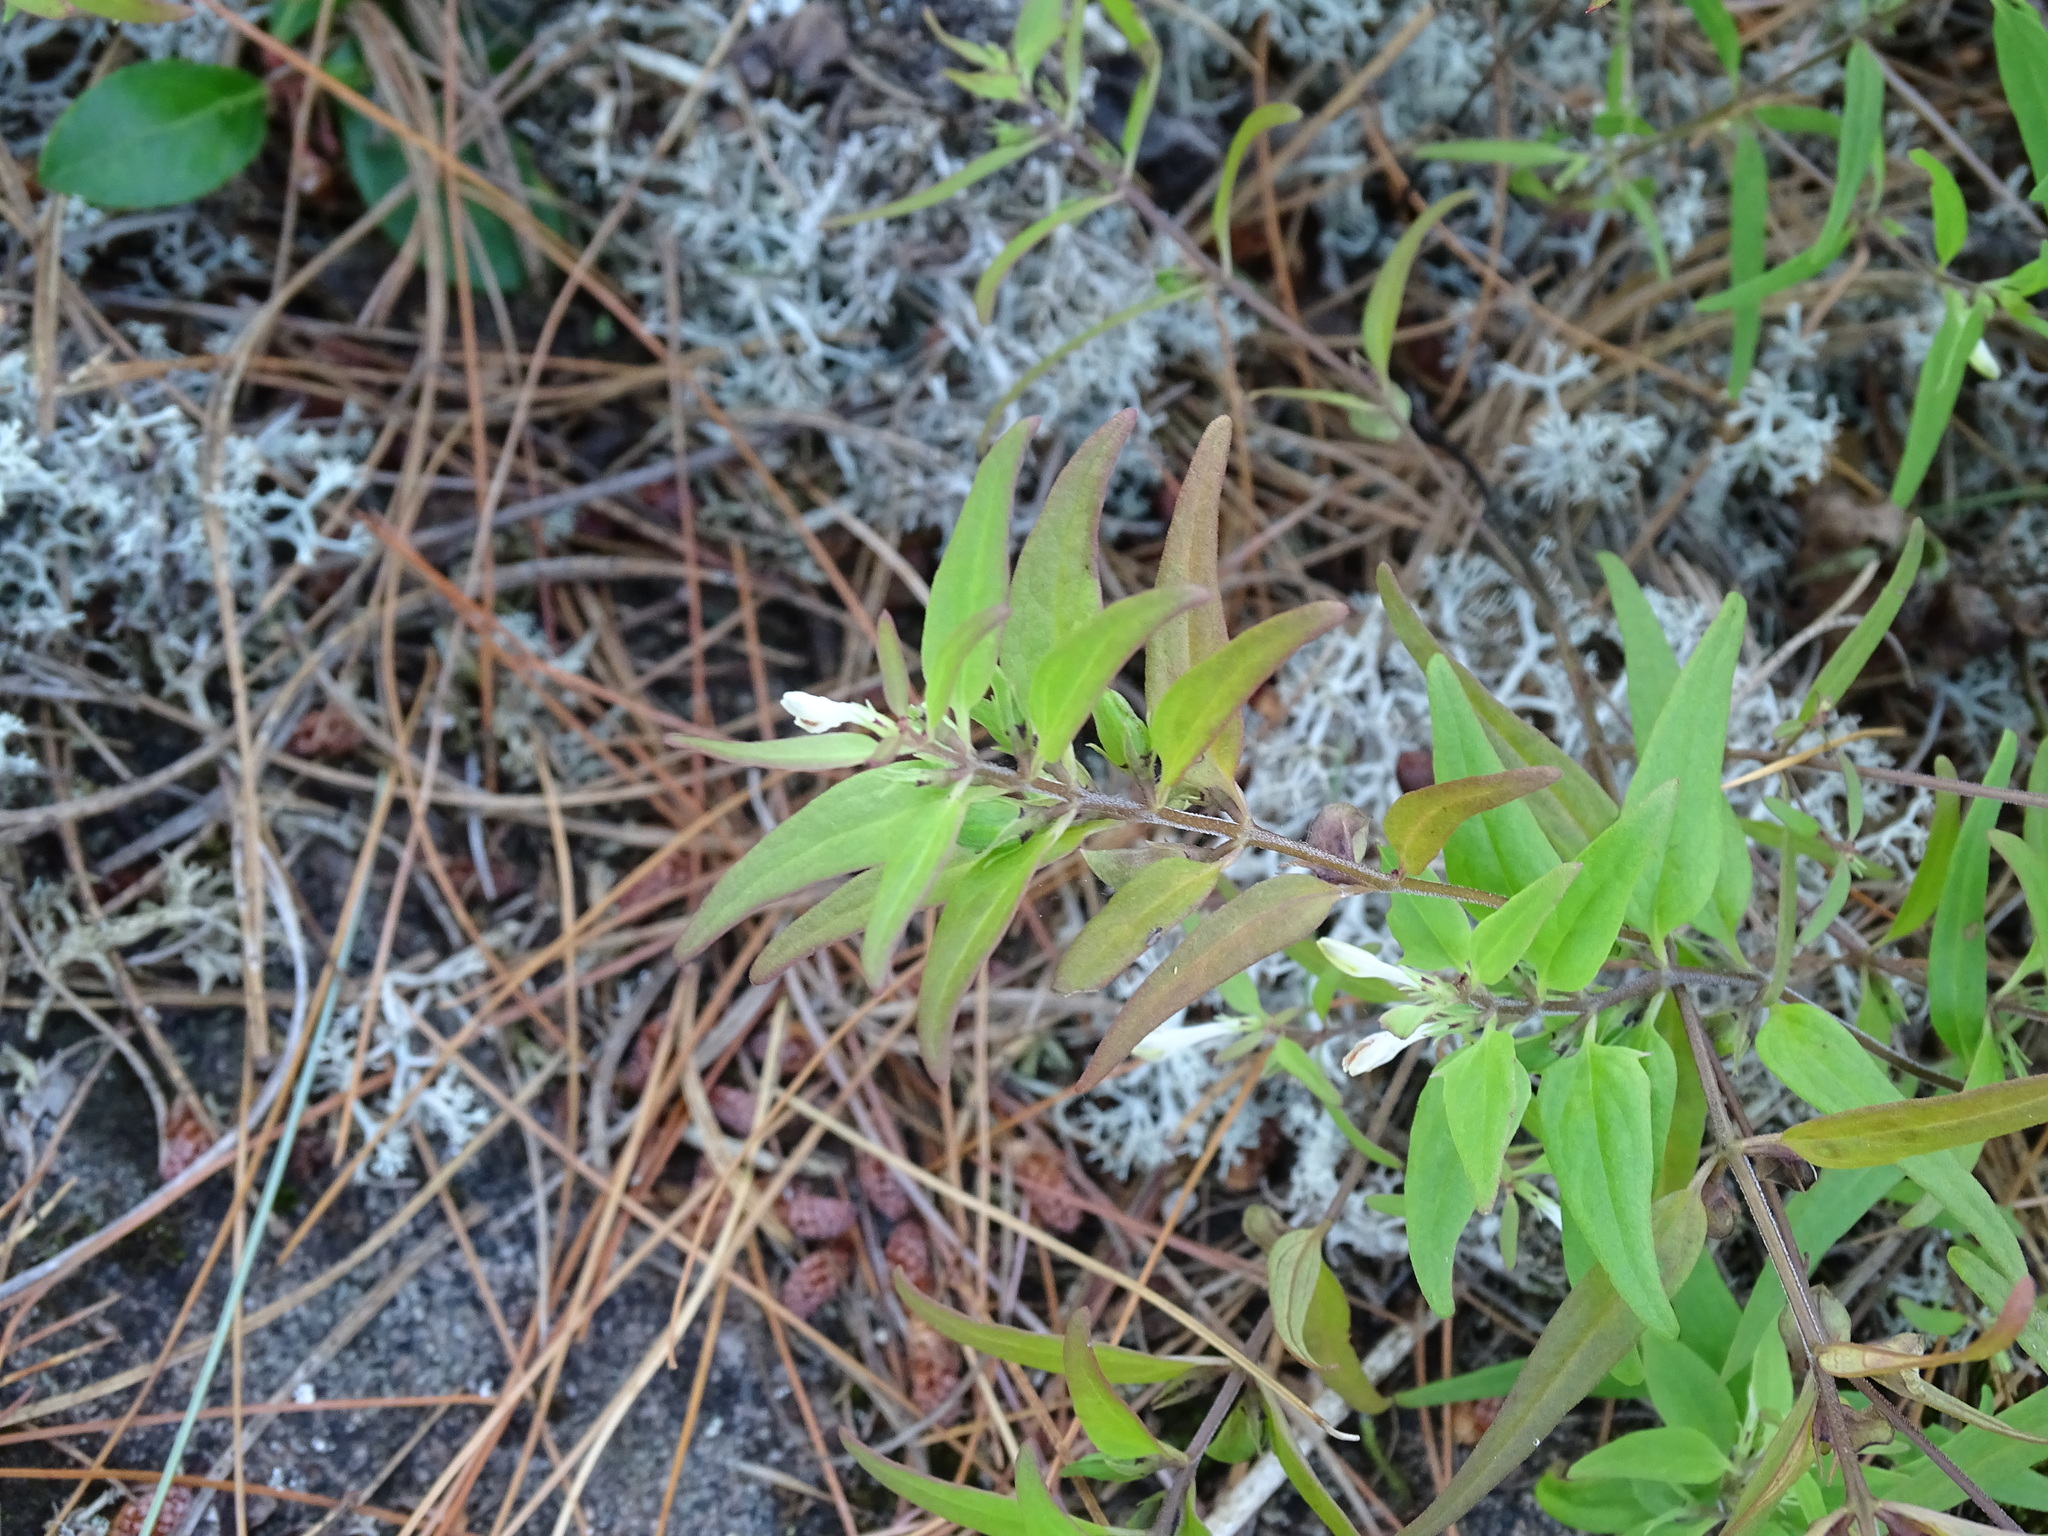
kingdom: Plantae
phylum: Tracheophyta
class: Magnoliopsida
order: Lamiales
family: Orobanchaceae
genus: Melampyrum
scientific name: Melampyrum lineare
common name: American cow-wheat
